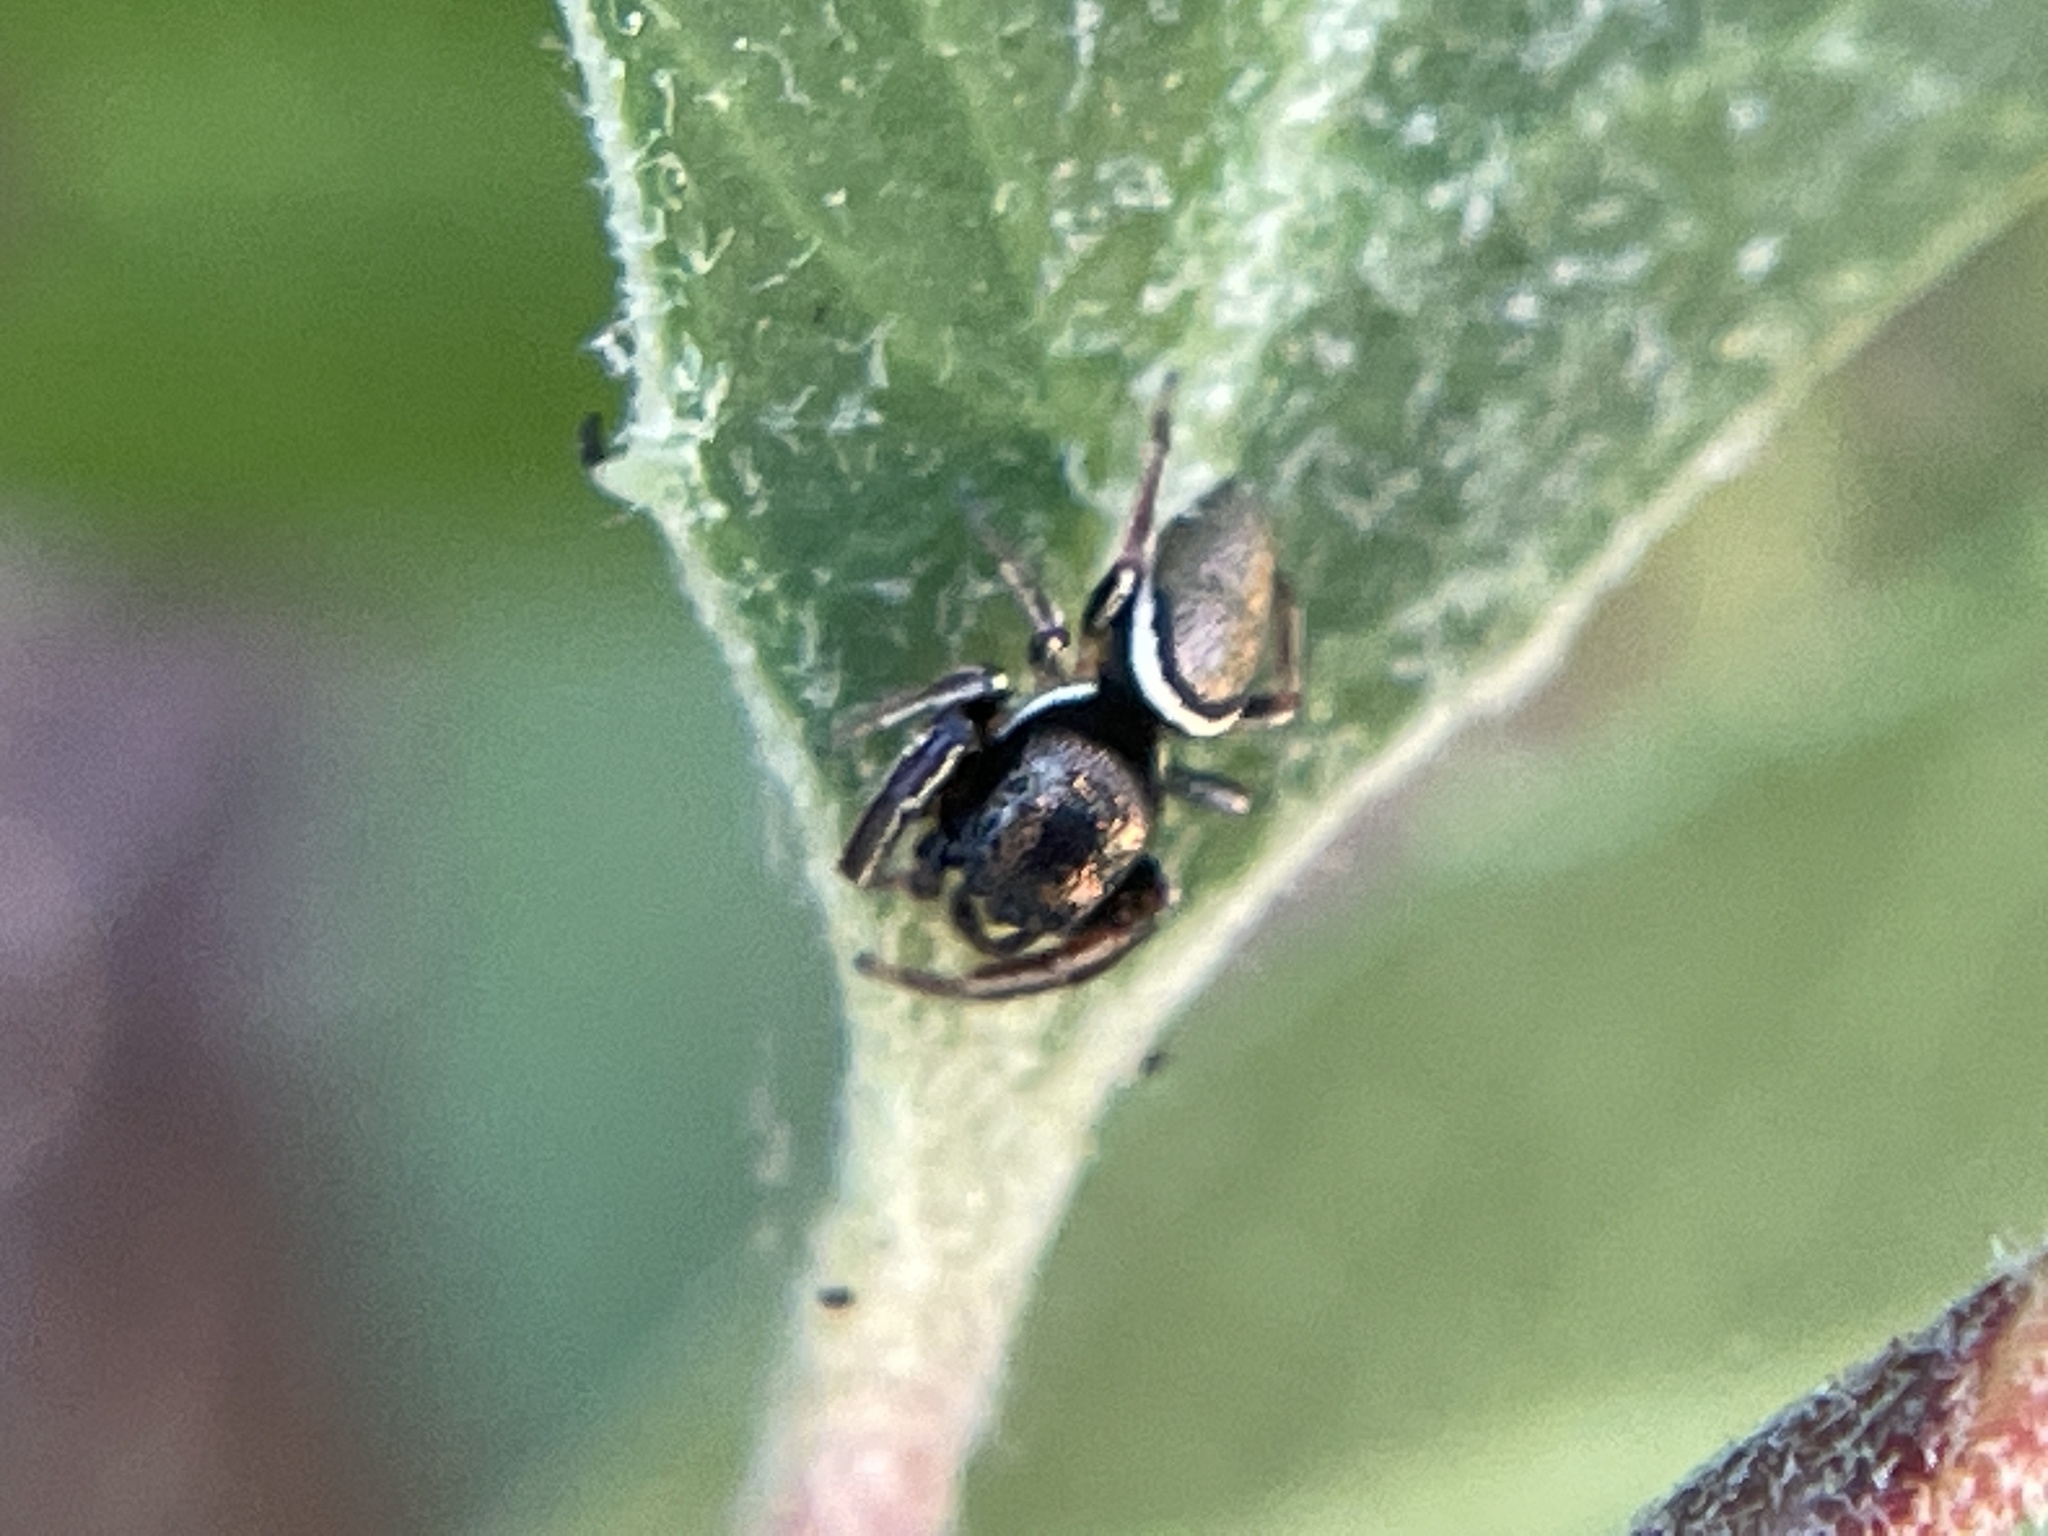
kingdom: Animalia
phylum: Arthropoda
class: Arachnida
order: Araneae
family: Salticidae
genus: Sassacus
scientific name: Sassacus vitis
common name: Jumping spiders
